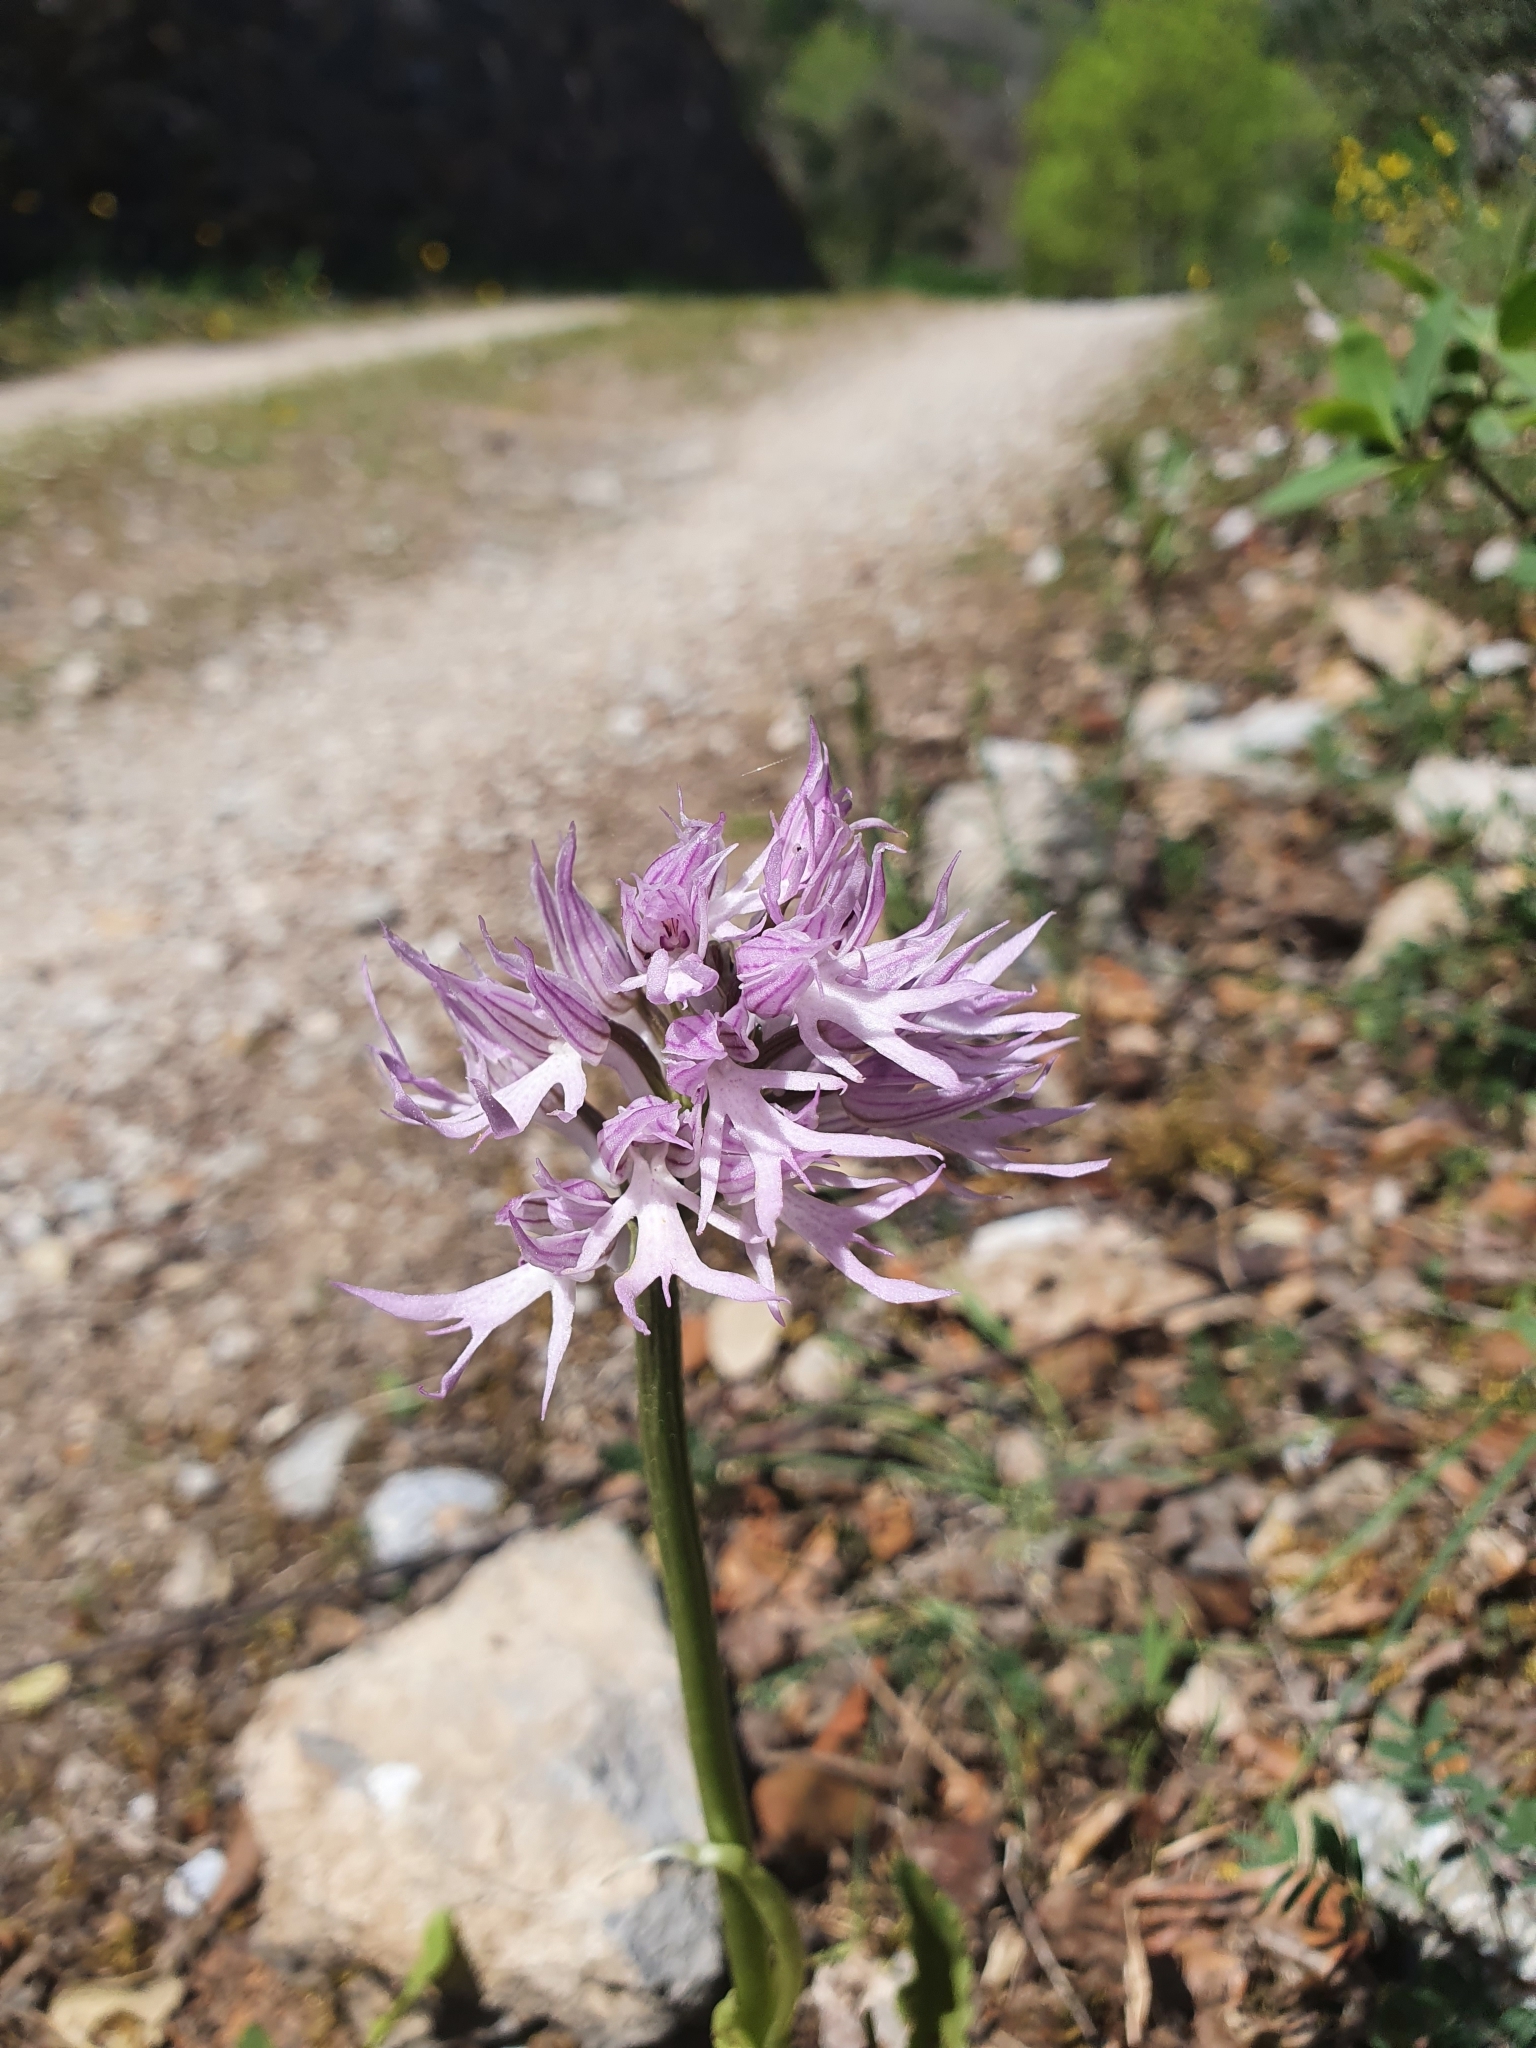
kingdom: Plantae
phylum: Tracheophyta
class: Liliopsida
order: Asparagales
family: Orchidaceae
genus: Orchis
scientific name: Orchis italica
